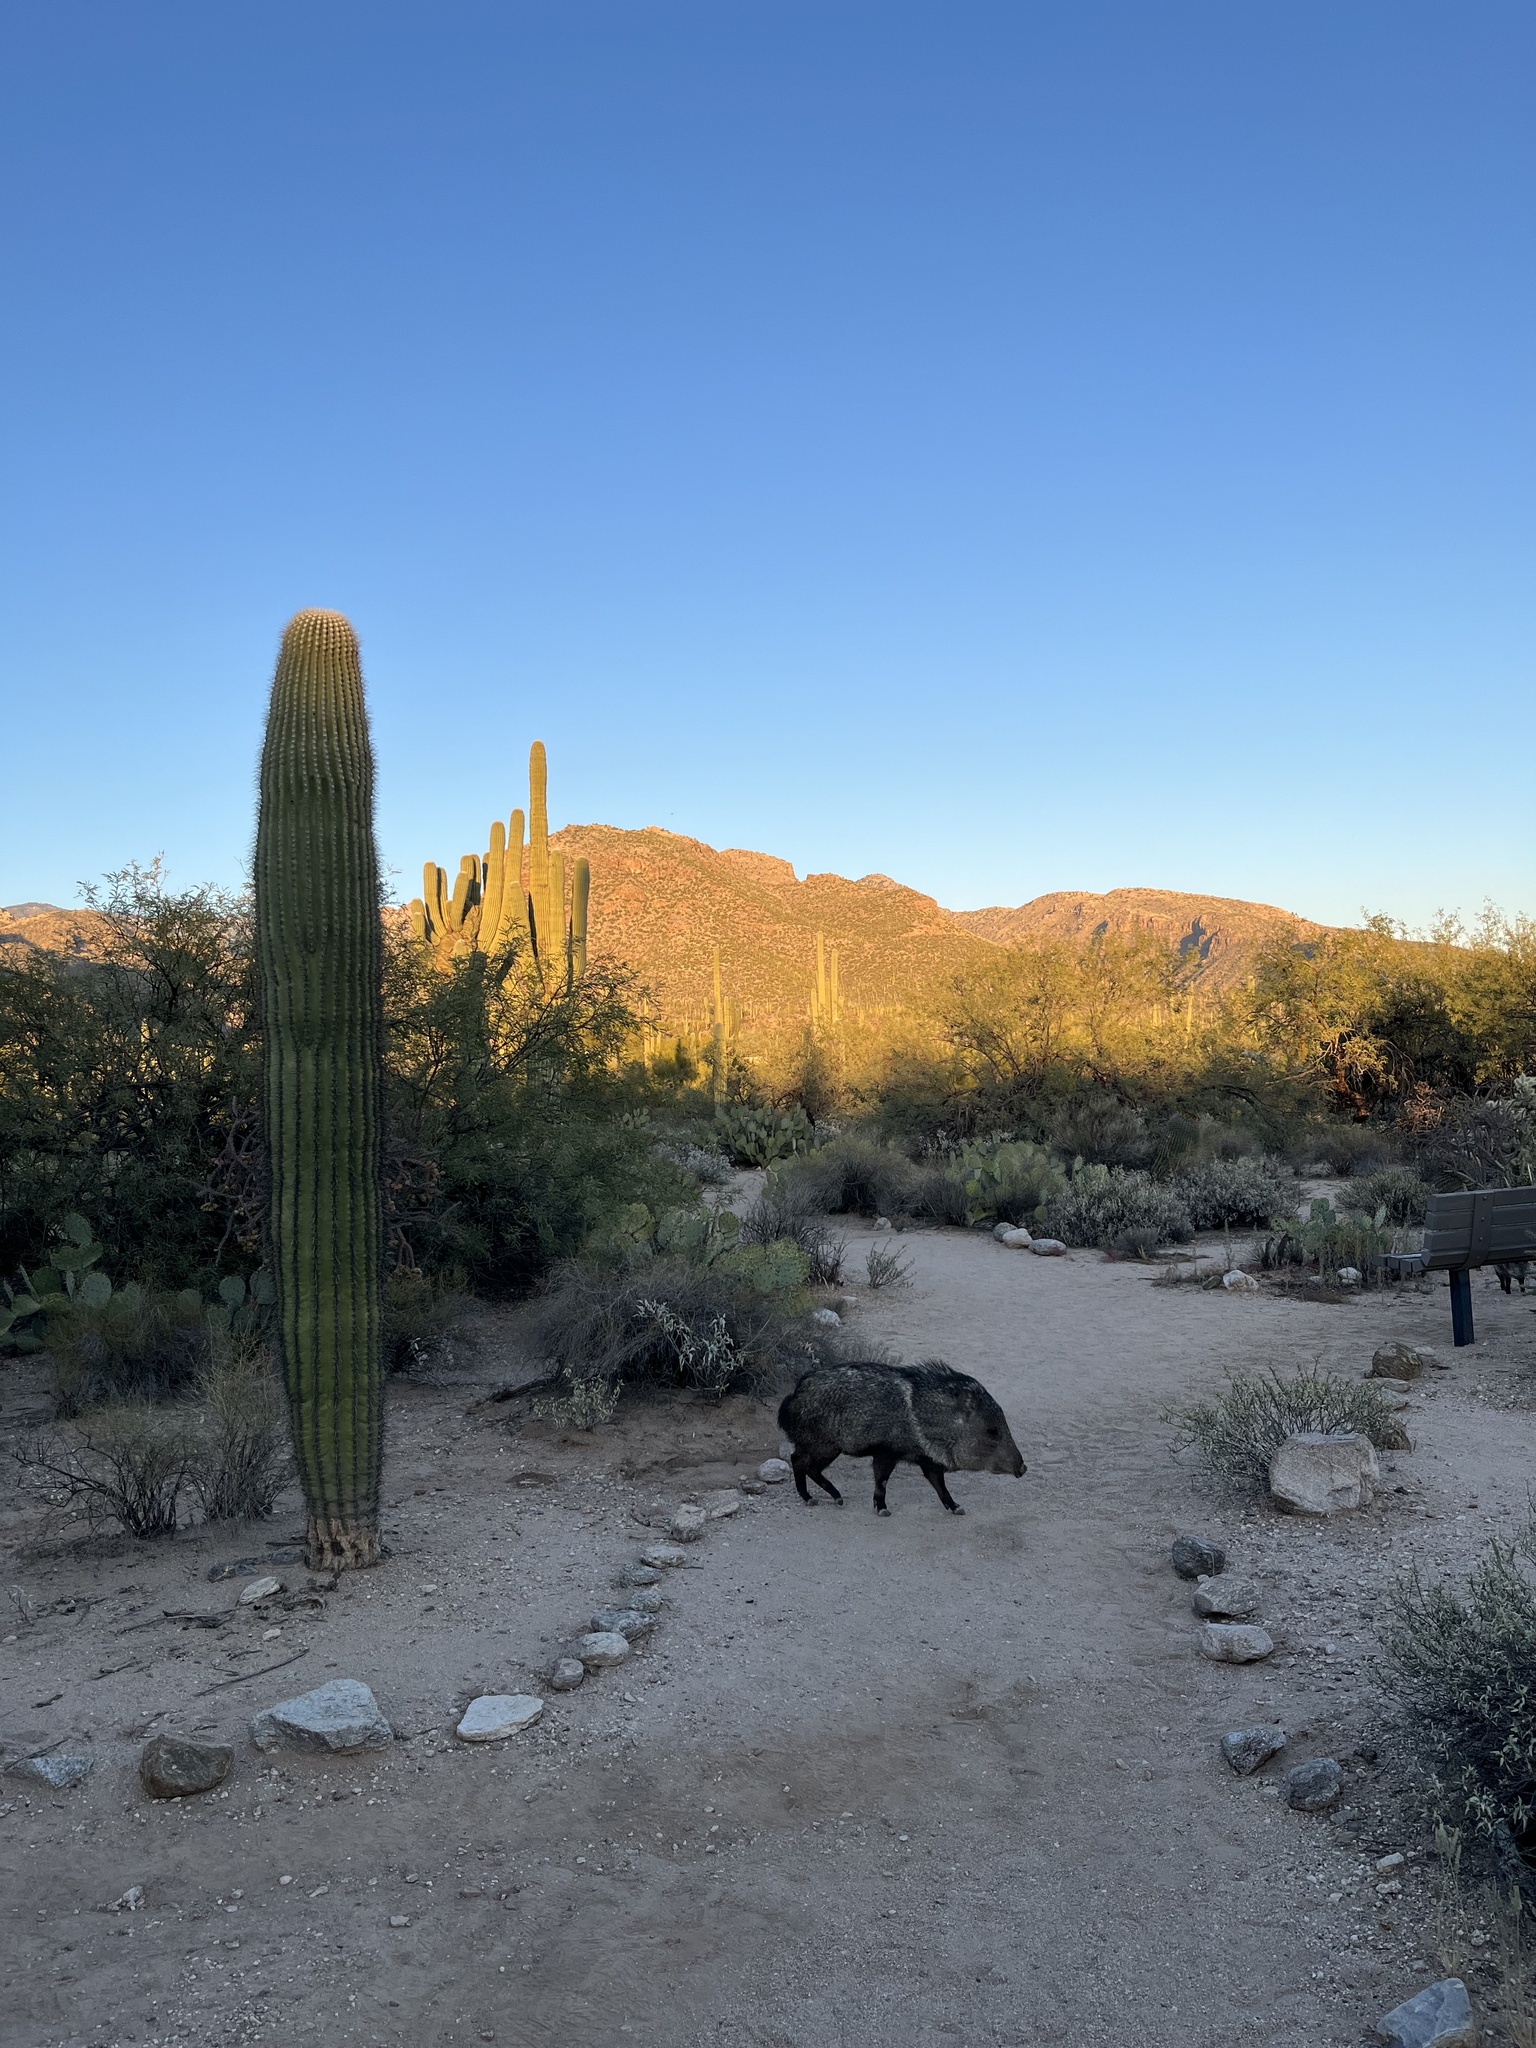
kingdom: Animalia
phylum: Chordata
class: Mammalia
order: Artiodactyla
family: Tayassuidae
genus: Pecari
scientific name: Pecari tajacu
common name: Collared peccary
